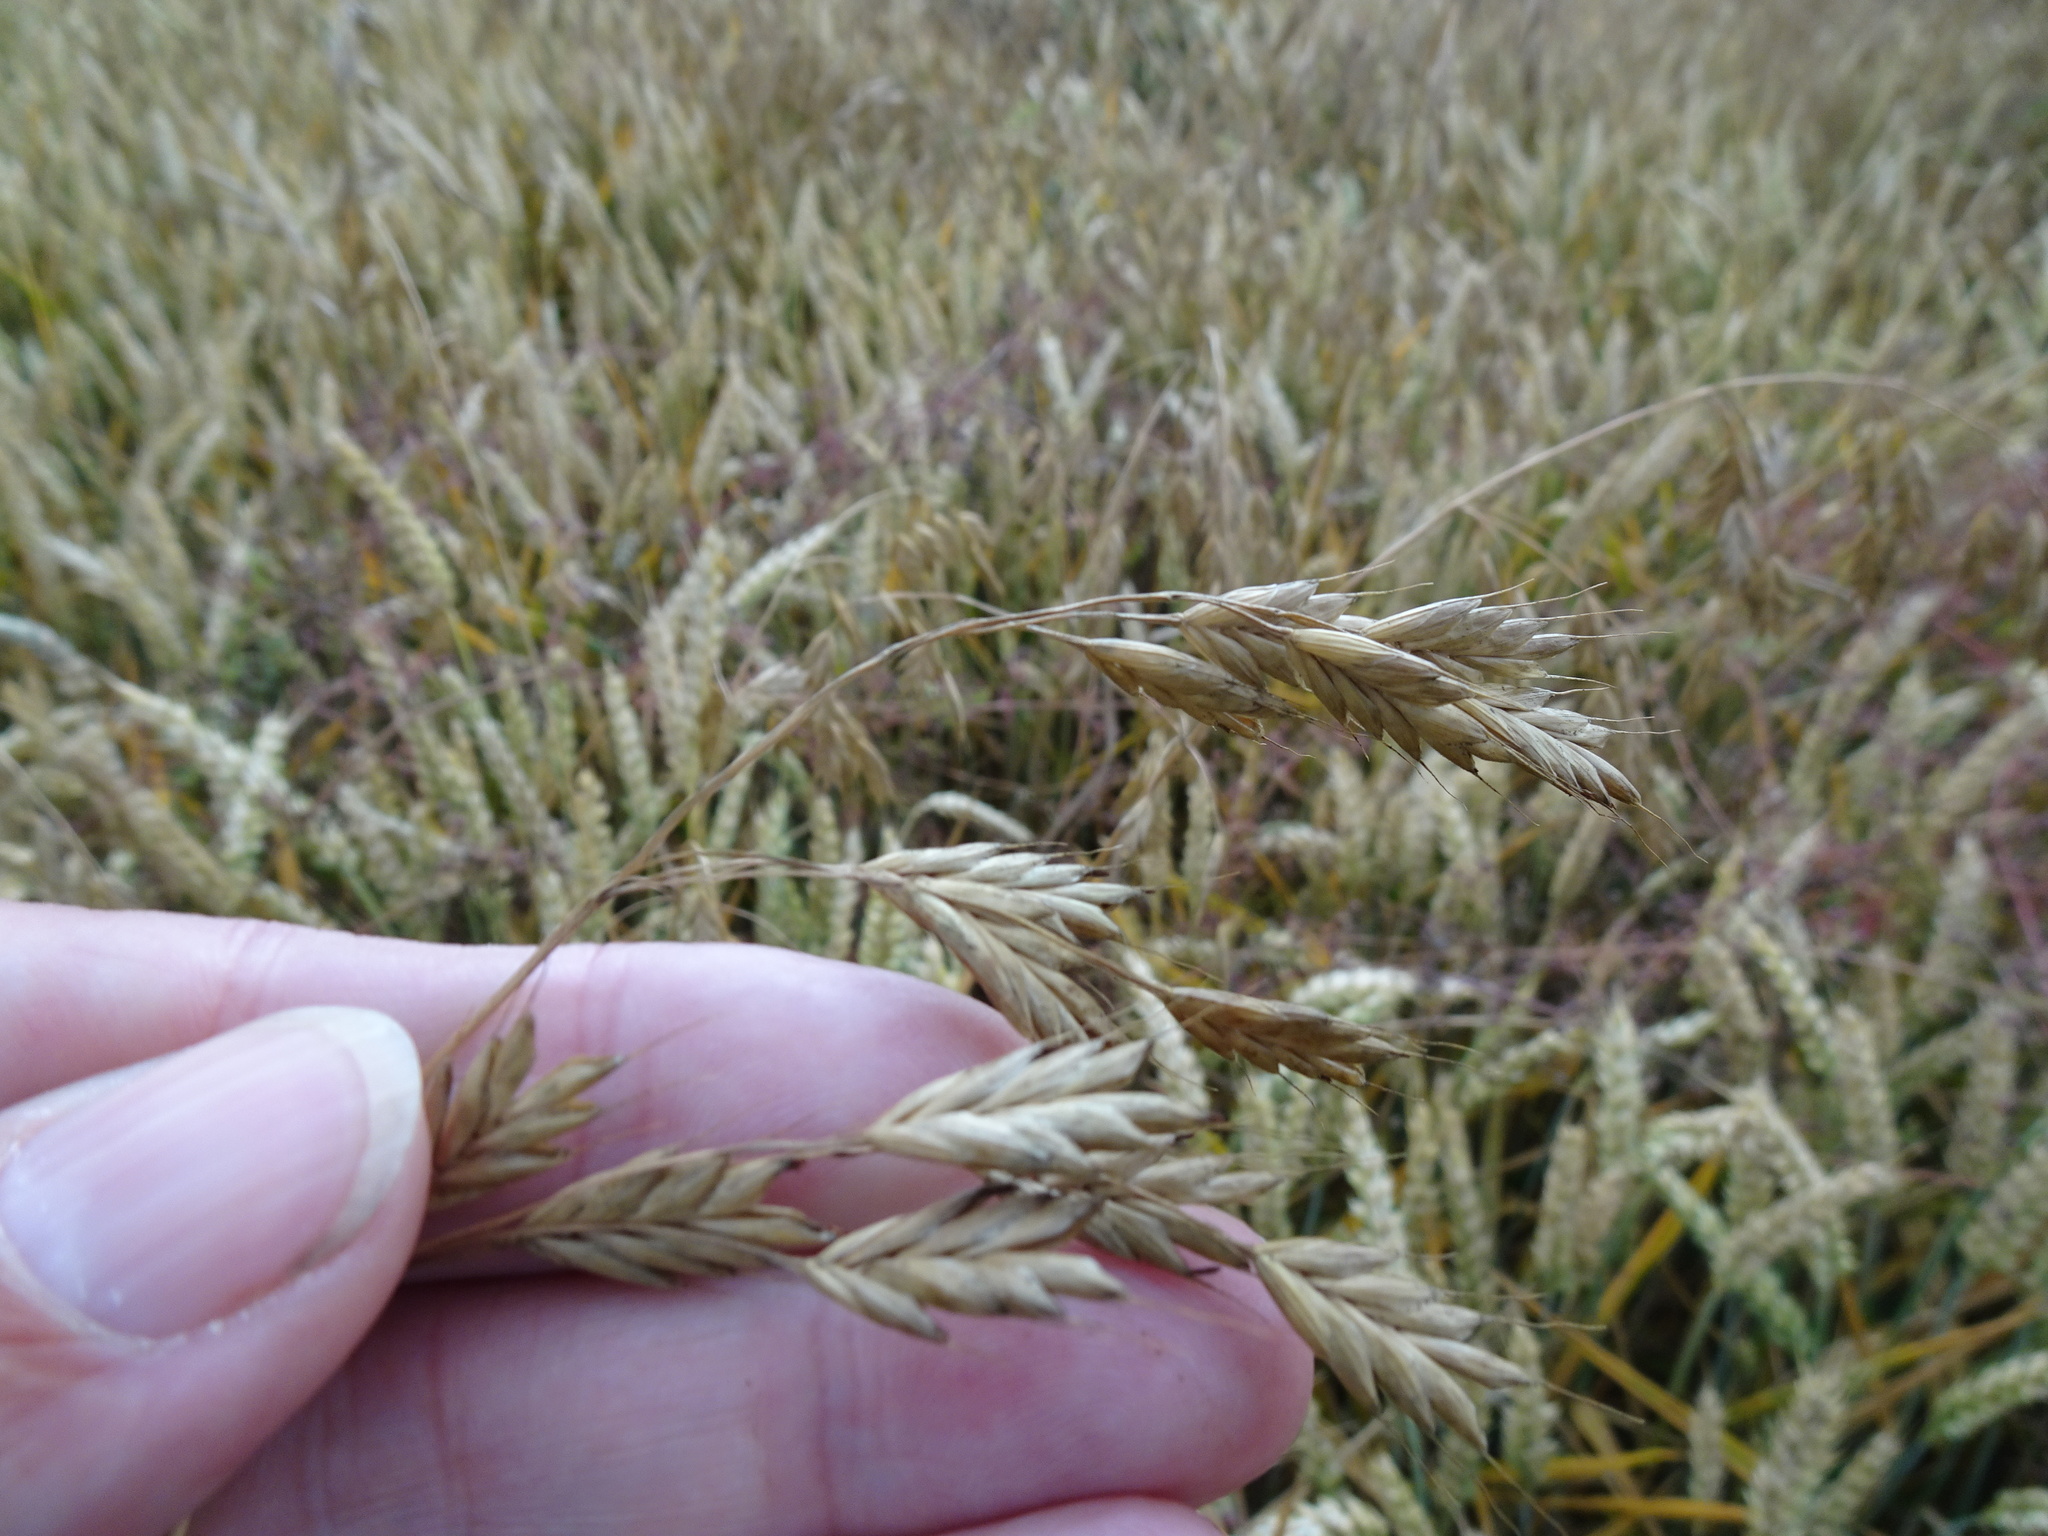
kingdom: Plantae
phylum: Tracheophyta
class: Liliopsida
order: Poales
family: Poaceae
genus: Bromus
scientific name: Bromus secalinus
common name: Rye brome
